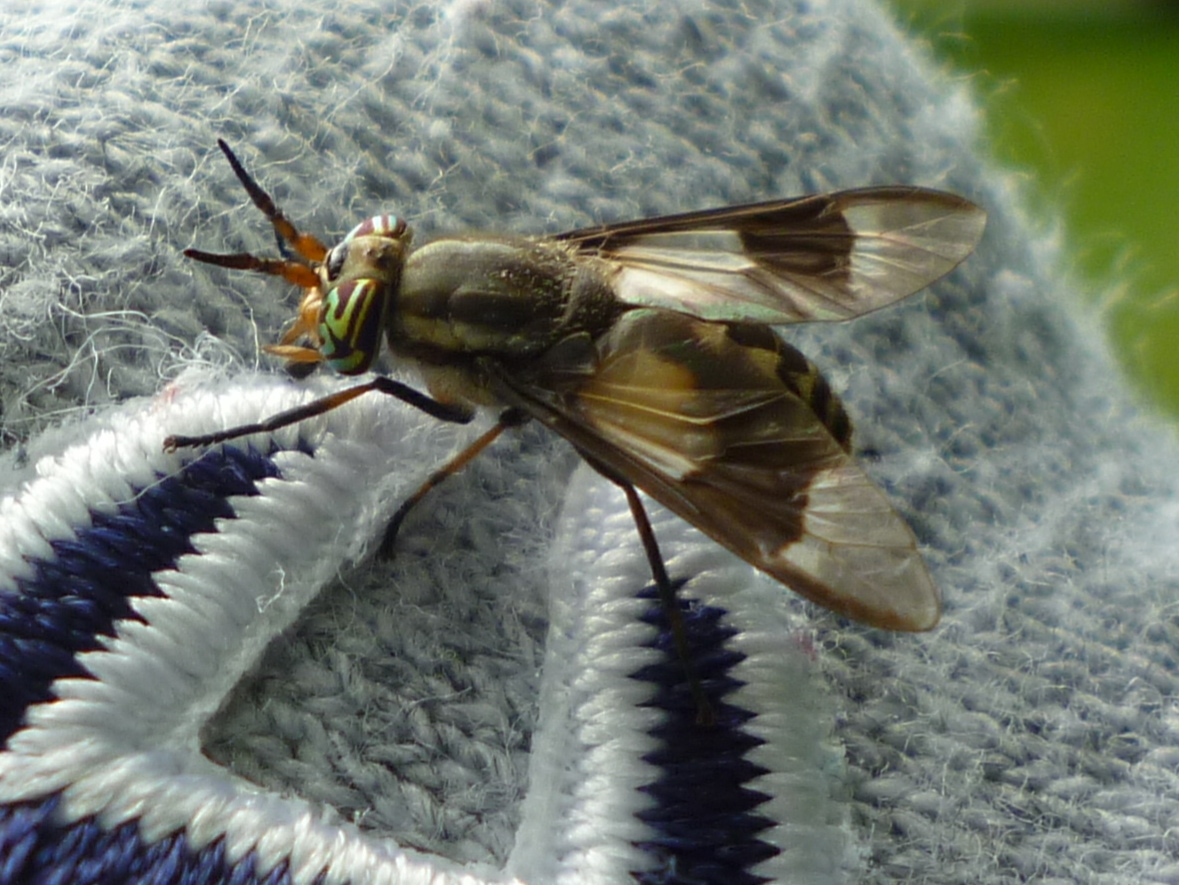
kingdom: Animalia
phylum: Arthropoda
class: Insecta
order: Diptera
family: Tabanidae
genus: Chrysops
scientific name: Chrysops callidus
